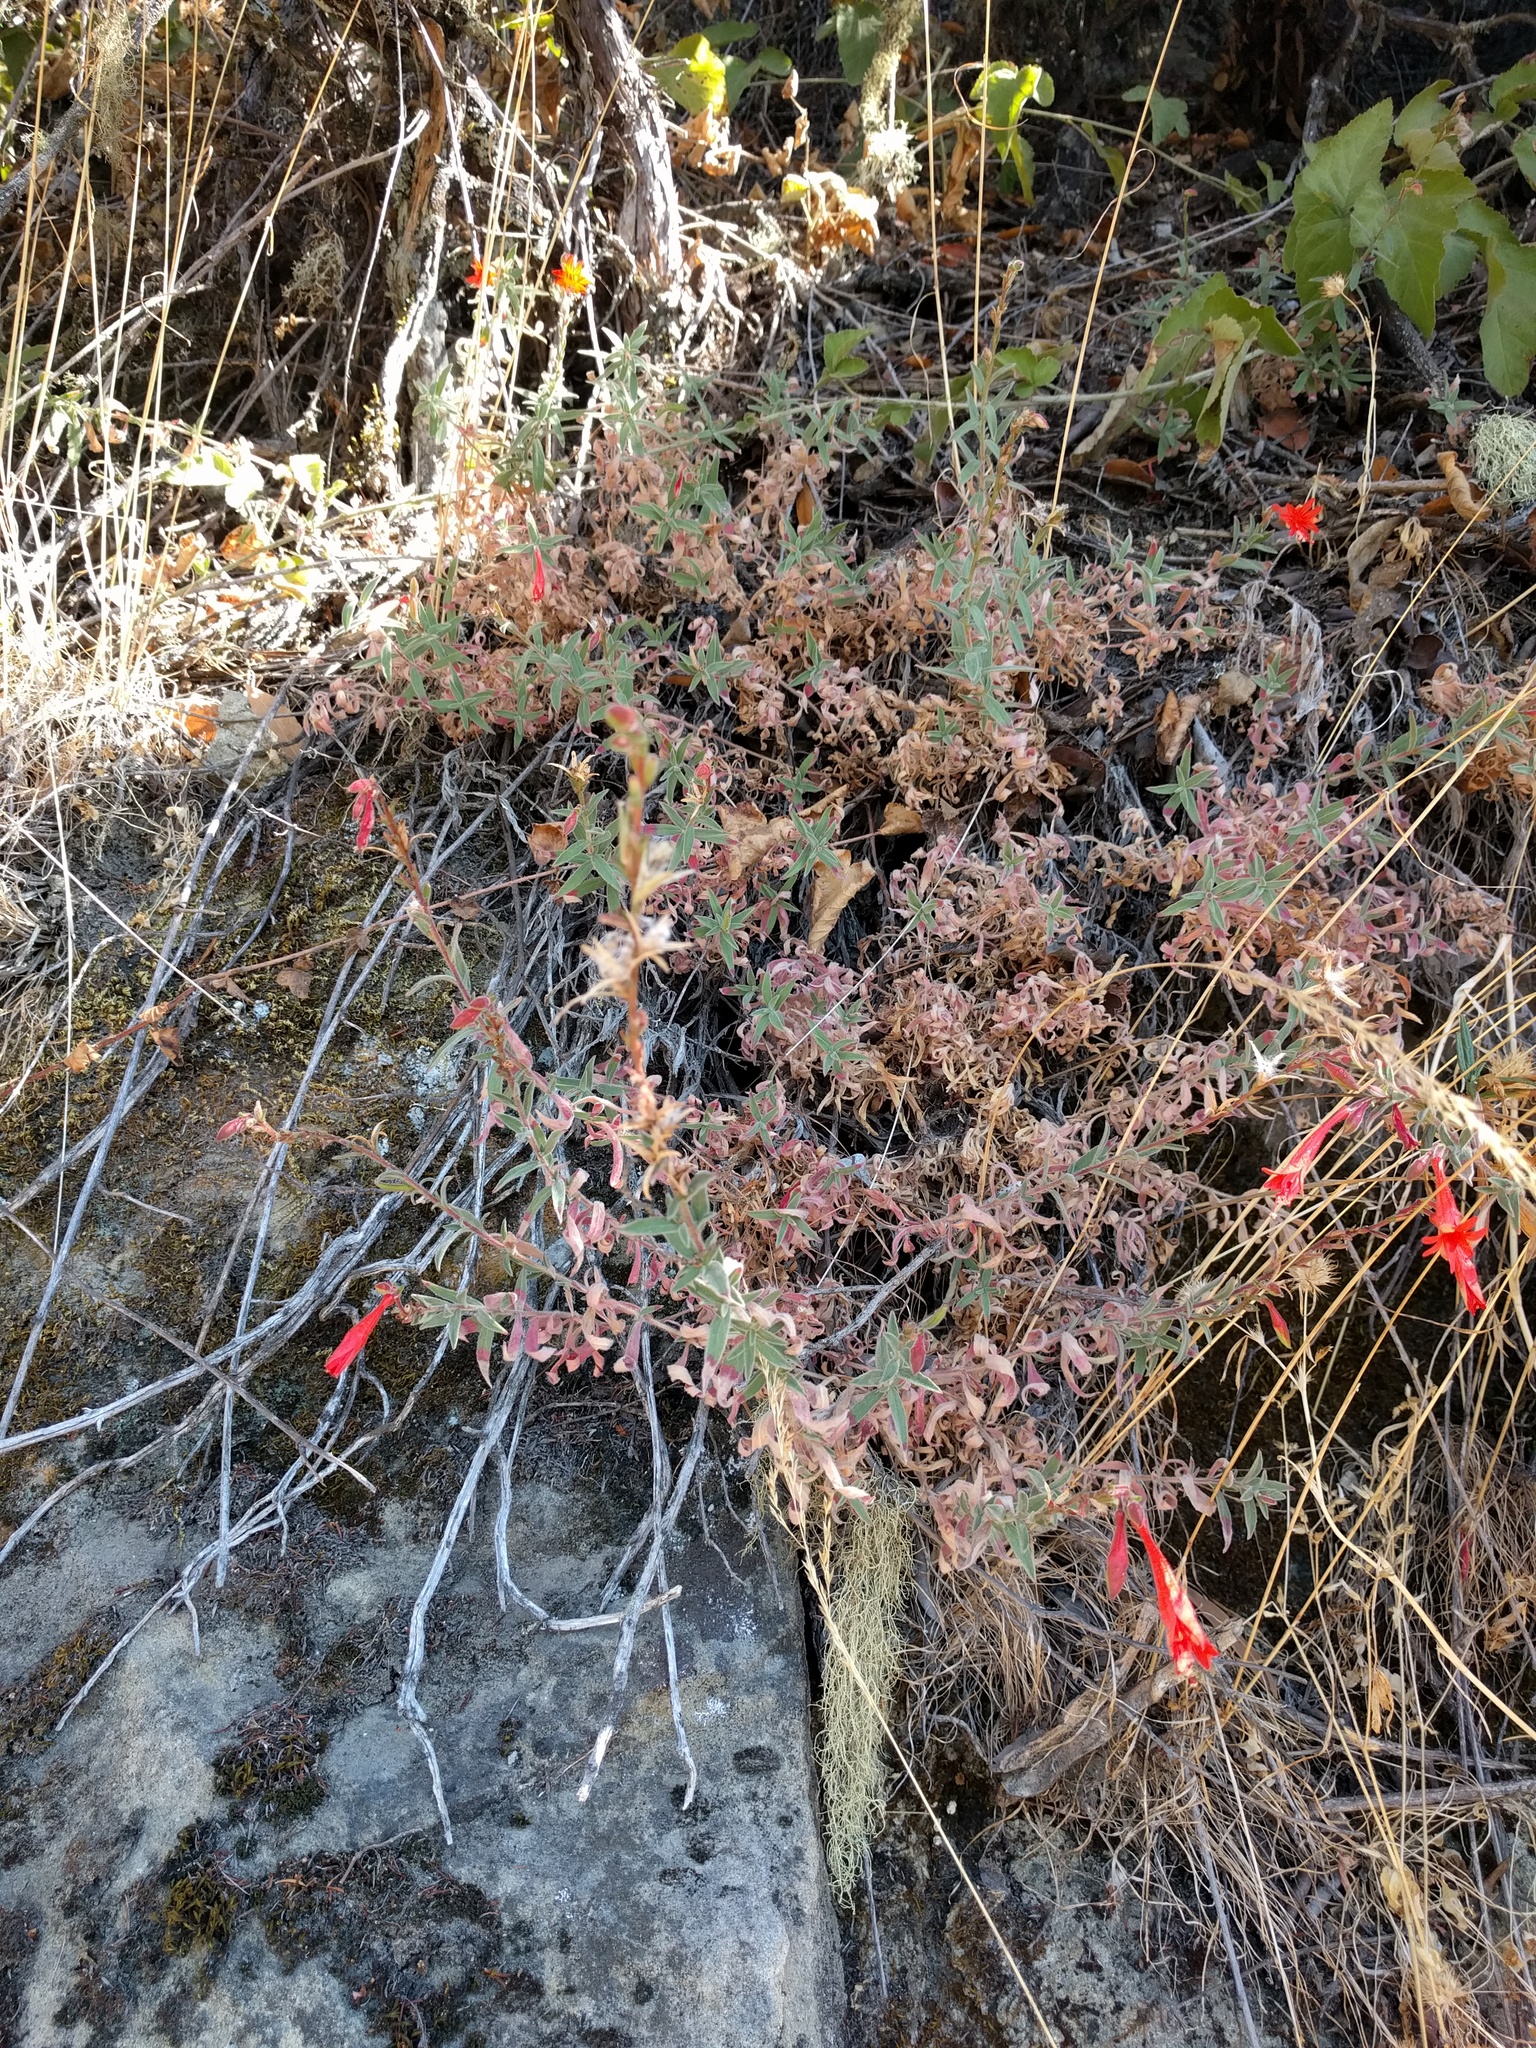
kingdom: Plantae
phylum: Tracheophyta
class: Magnoliopsida
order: Myrtales
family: Onagraceae
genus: Epilobium
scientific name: Epilobium canum
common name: California-fuchsia
